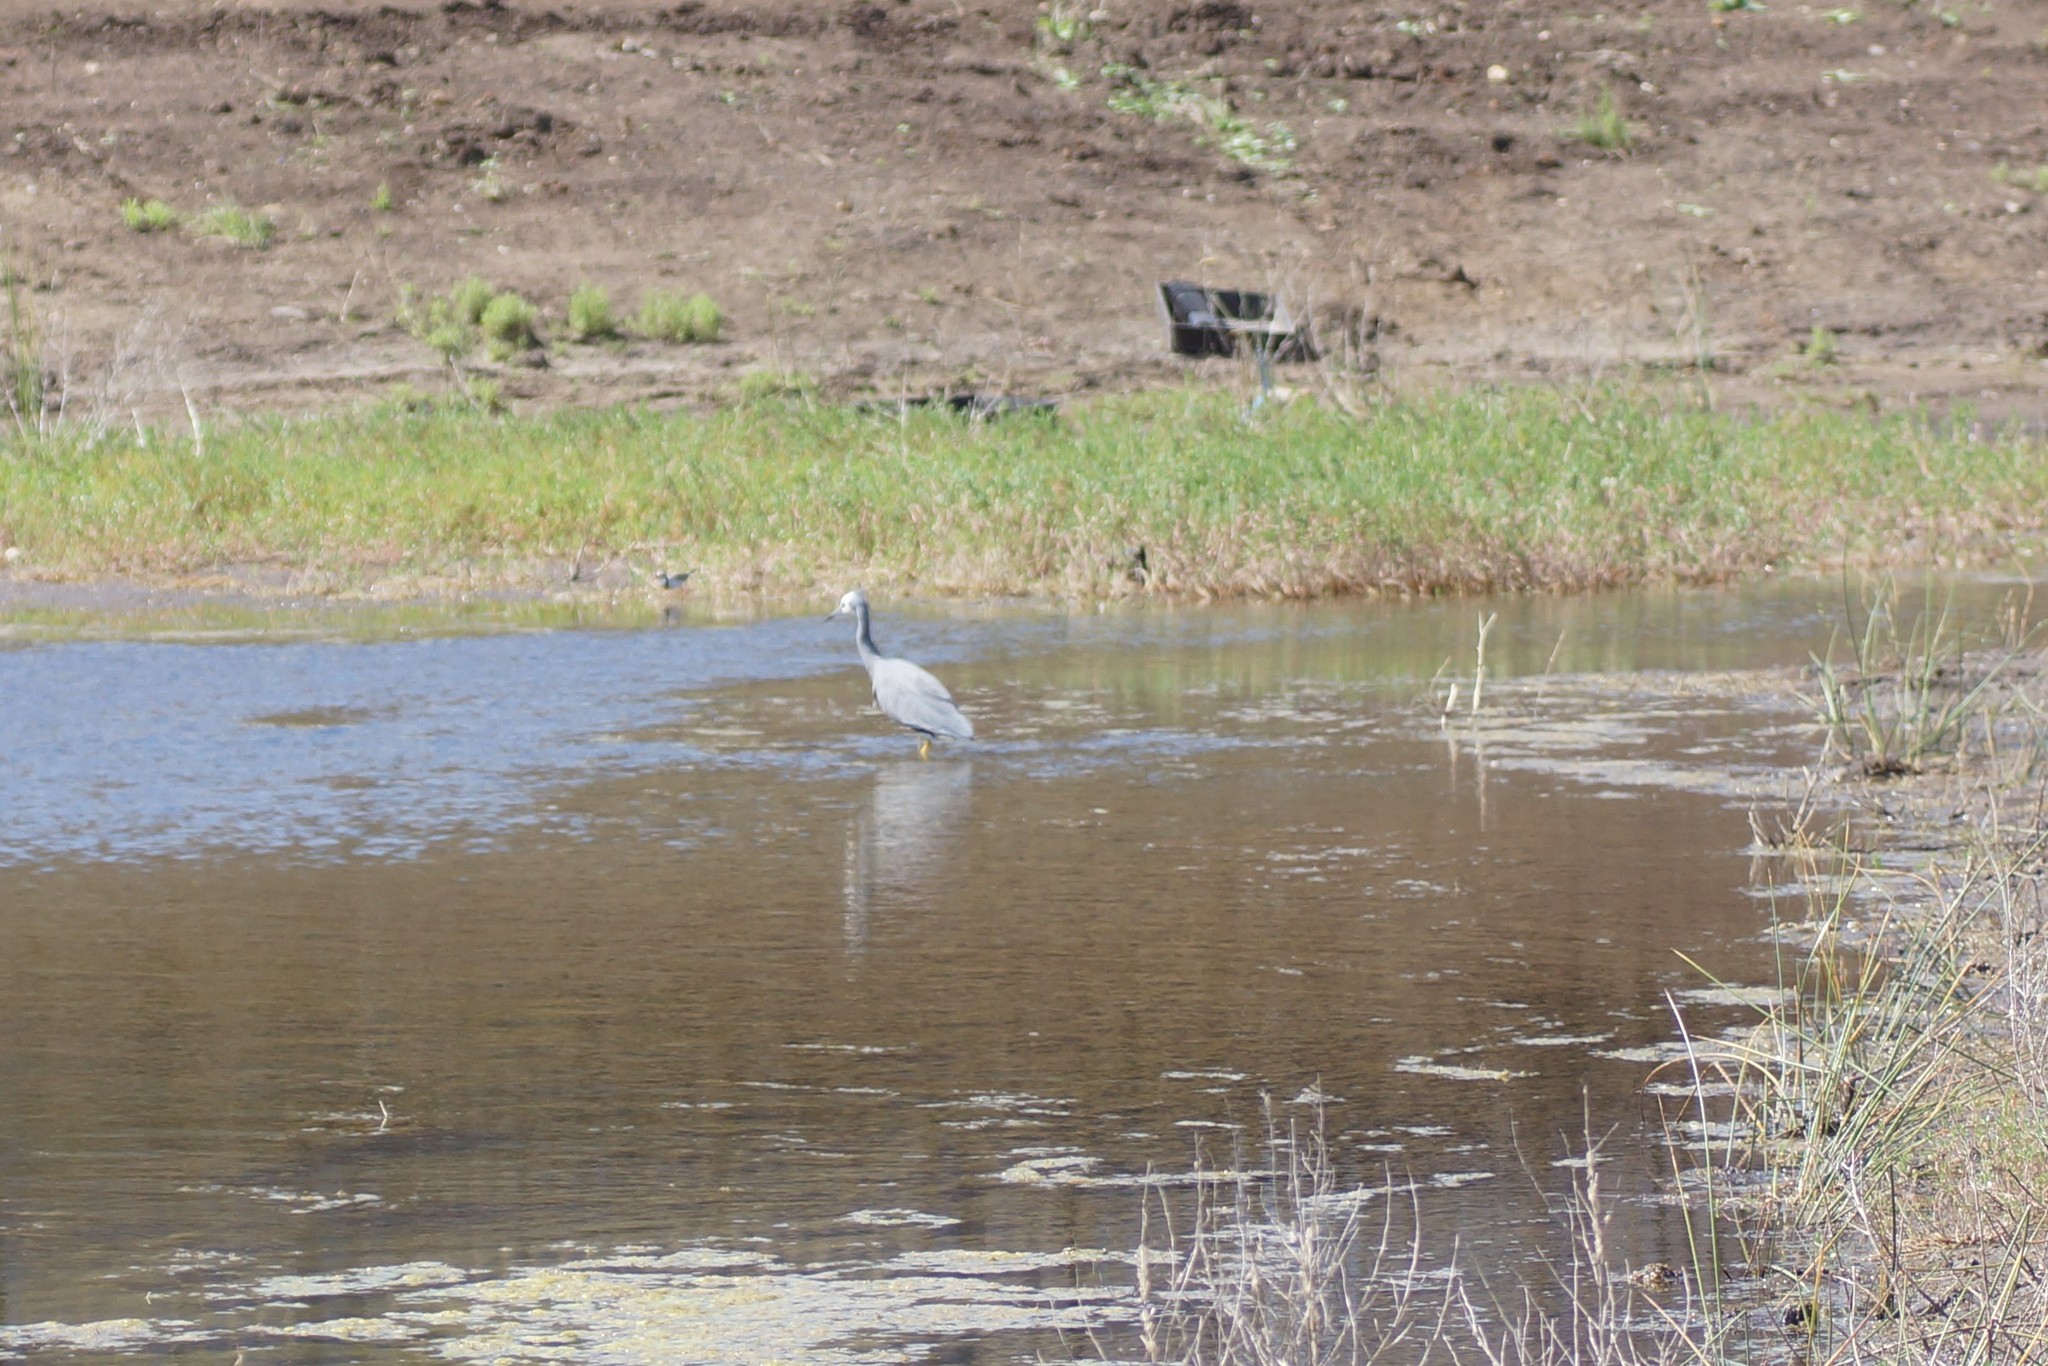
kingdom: Animalia
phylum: Chordata
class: Aves
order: Pelecaniformes
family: Ardeidae
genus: Egretta
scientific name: Egretta novaehollandiae
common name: White-faced heron
